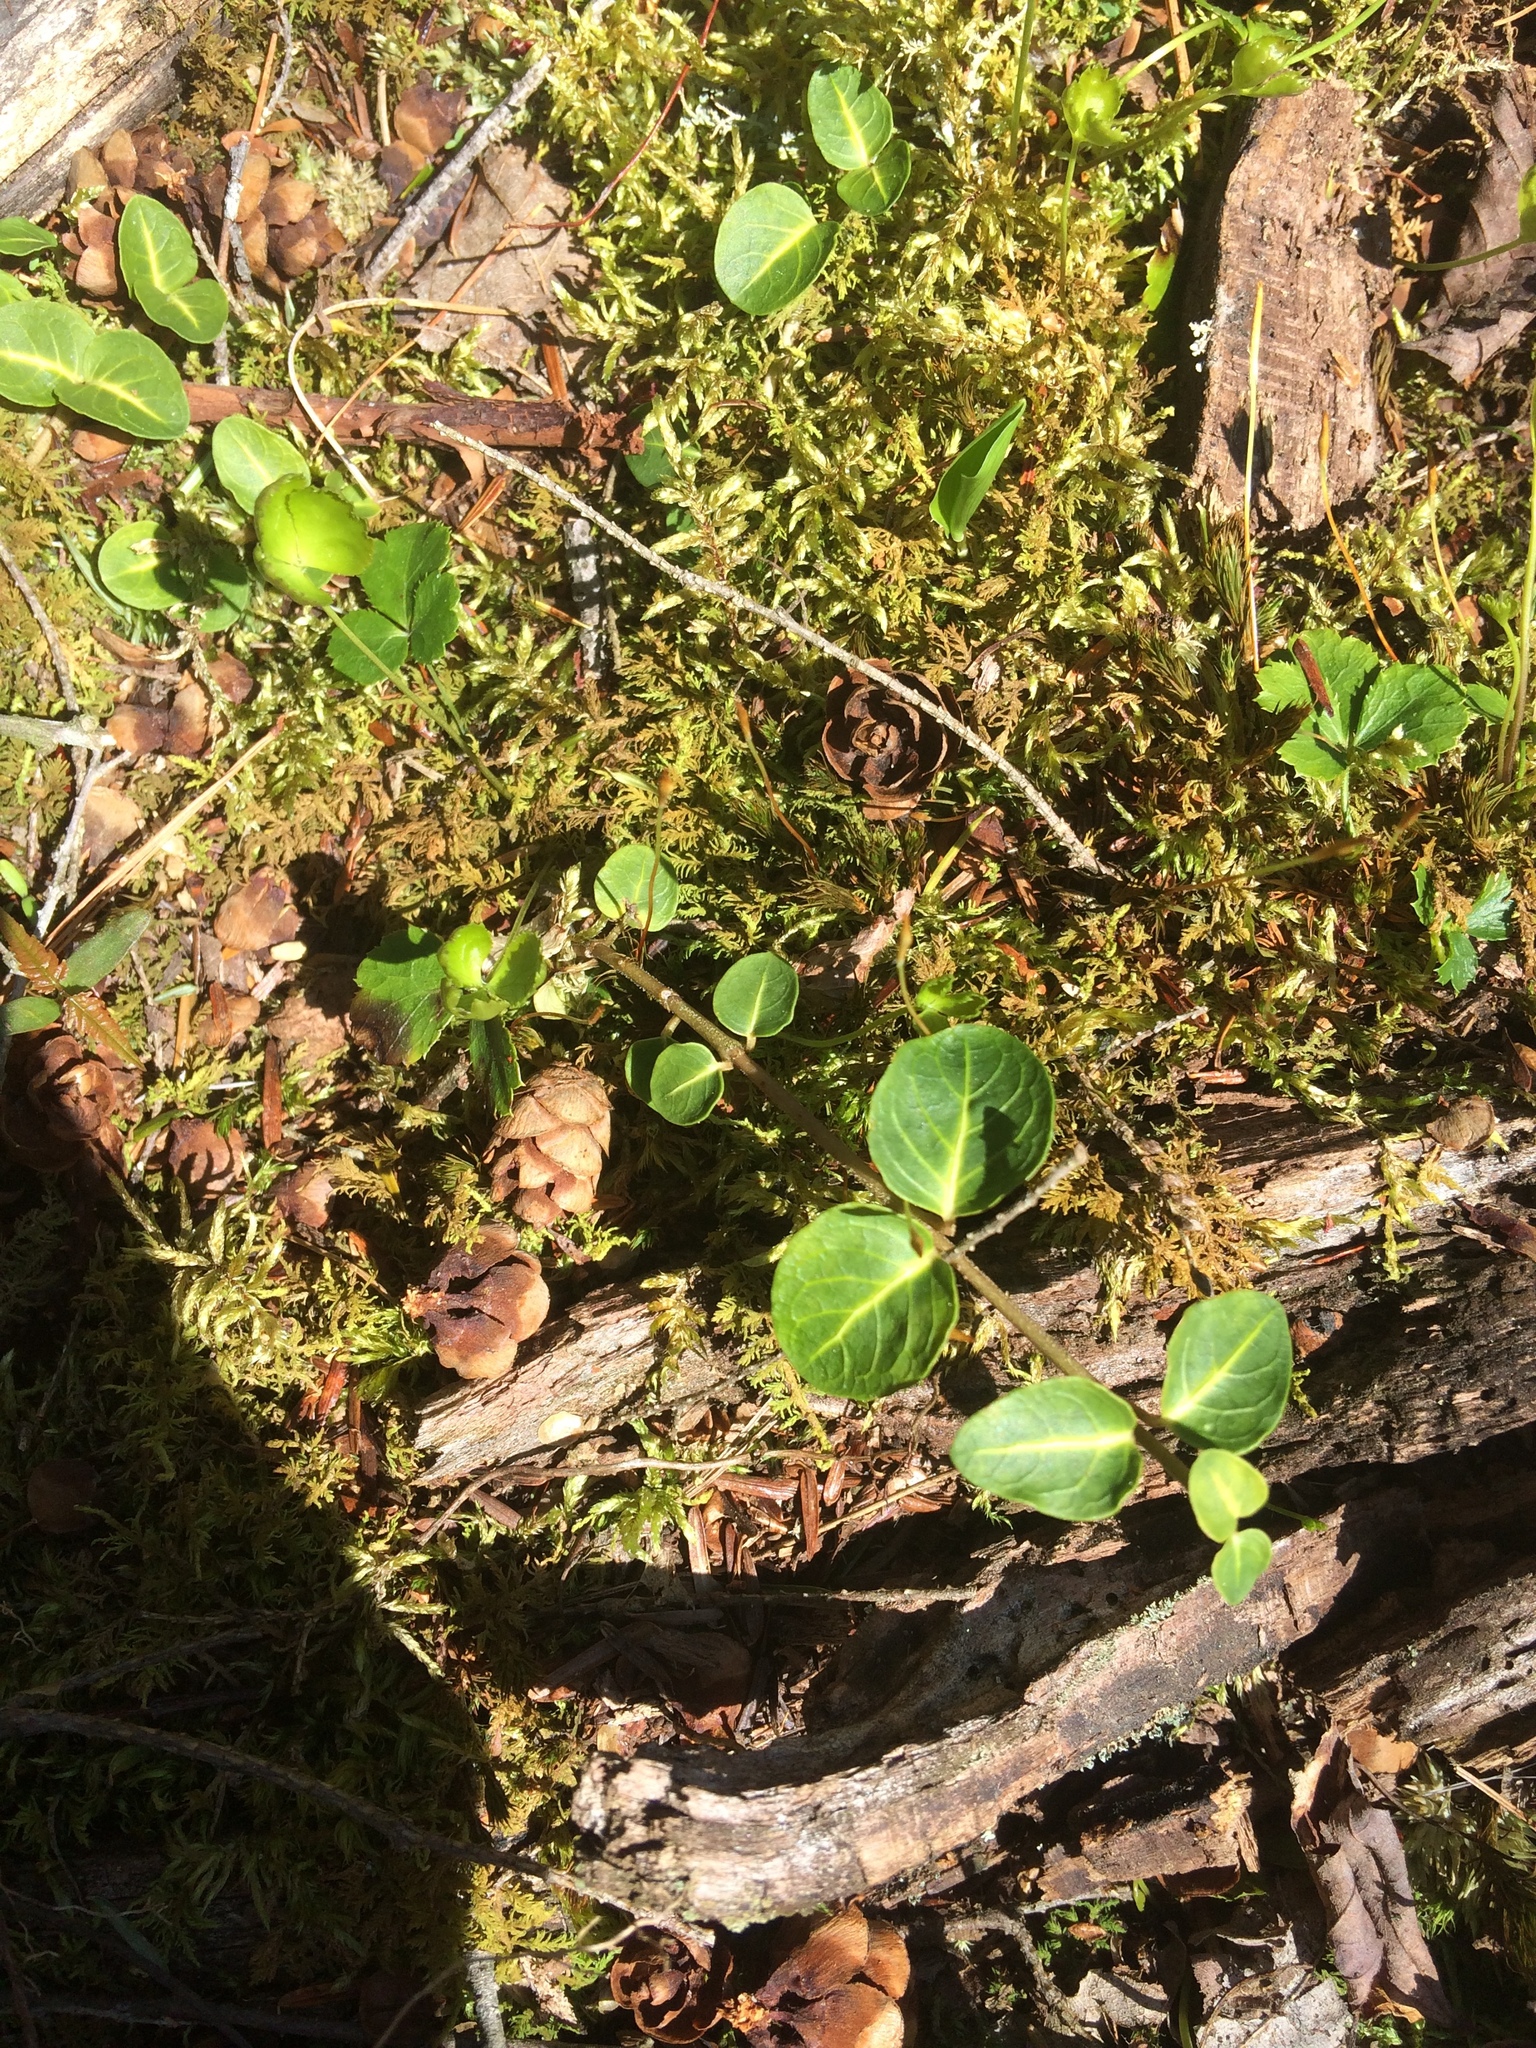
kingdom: Plantae
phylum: Tracheophyta
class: Magnoliopsida
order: Gentianales
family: Rubiaceae
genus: Mitchella
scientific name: Mitchella repens
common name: Partridge-berry
